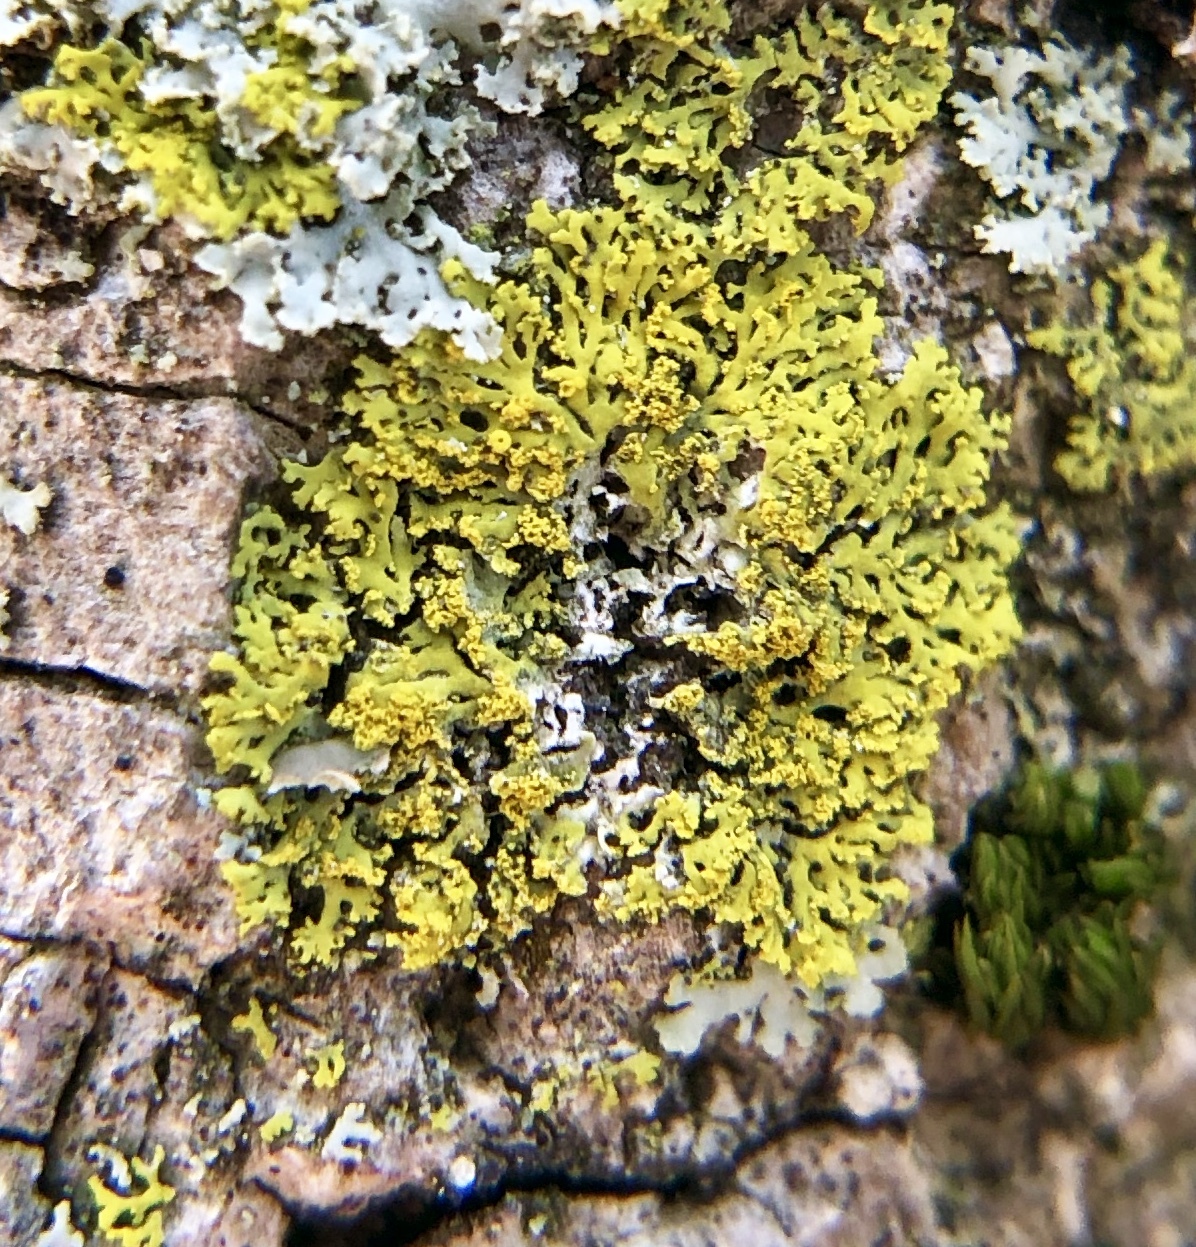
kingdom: Fungi
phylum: Ascomycota
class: Candelariomycetes
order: Candelariales
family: Candelariaceae
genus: Candelaria
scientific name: Candelaria concolor
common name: Candleflame lichen
